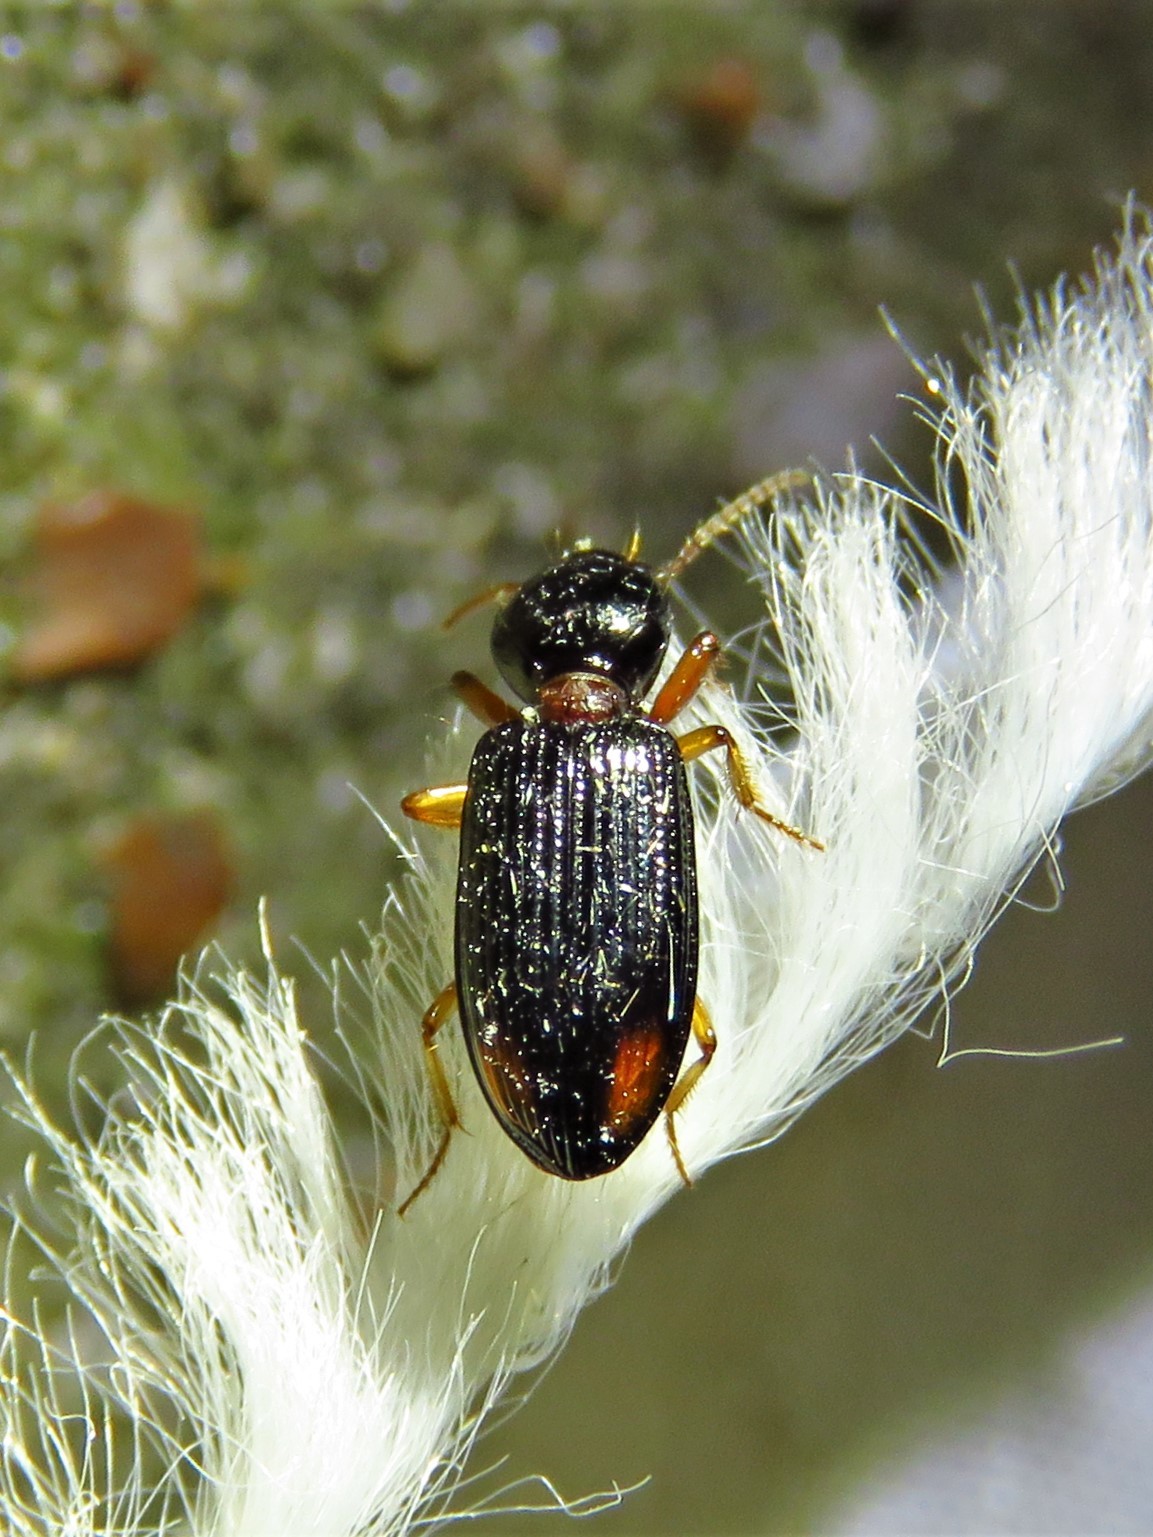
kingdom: Animalia
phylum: Arthropoda
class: Insecta
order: Coleoptera
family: Carabidae
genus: Aspidoglossa
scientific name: Aspidoglossa subangulata
